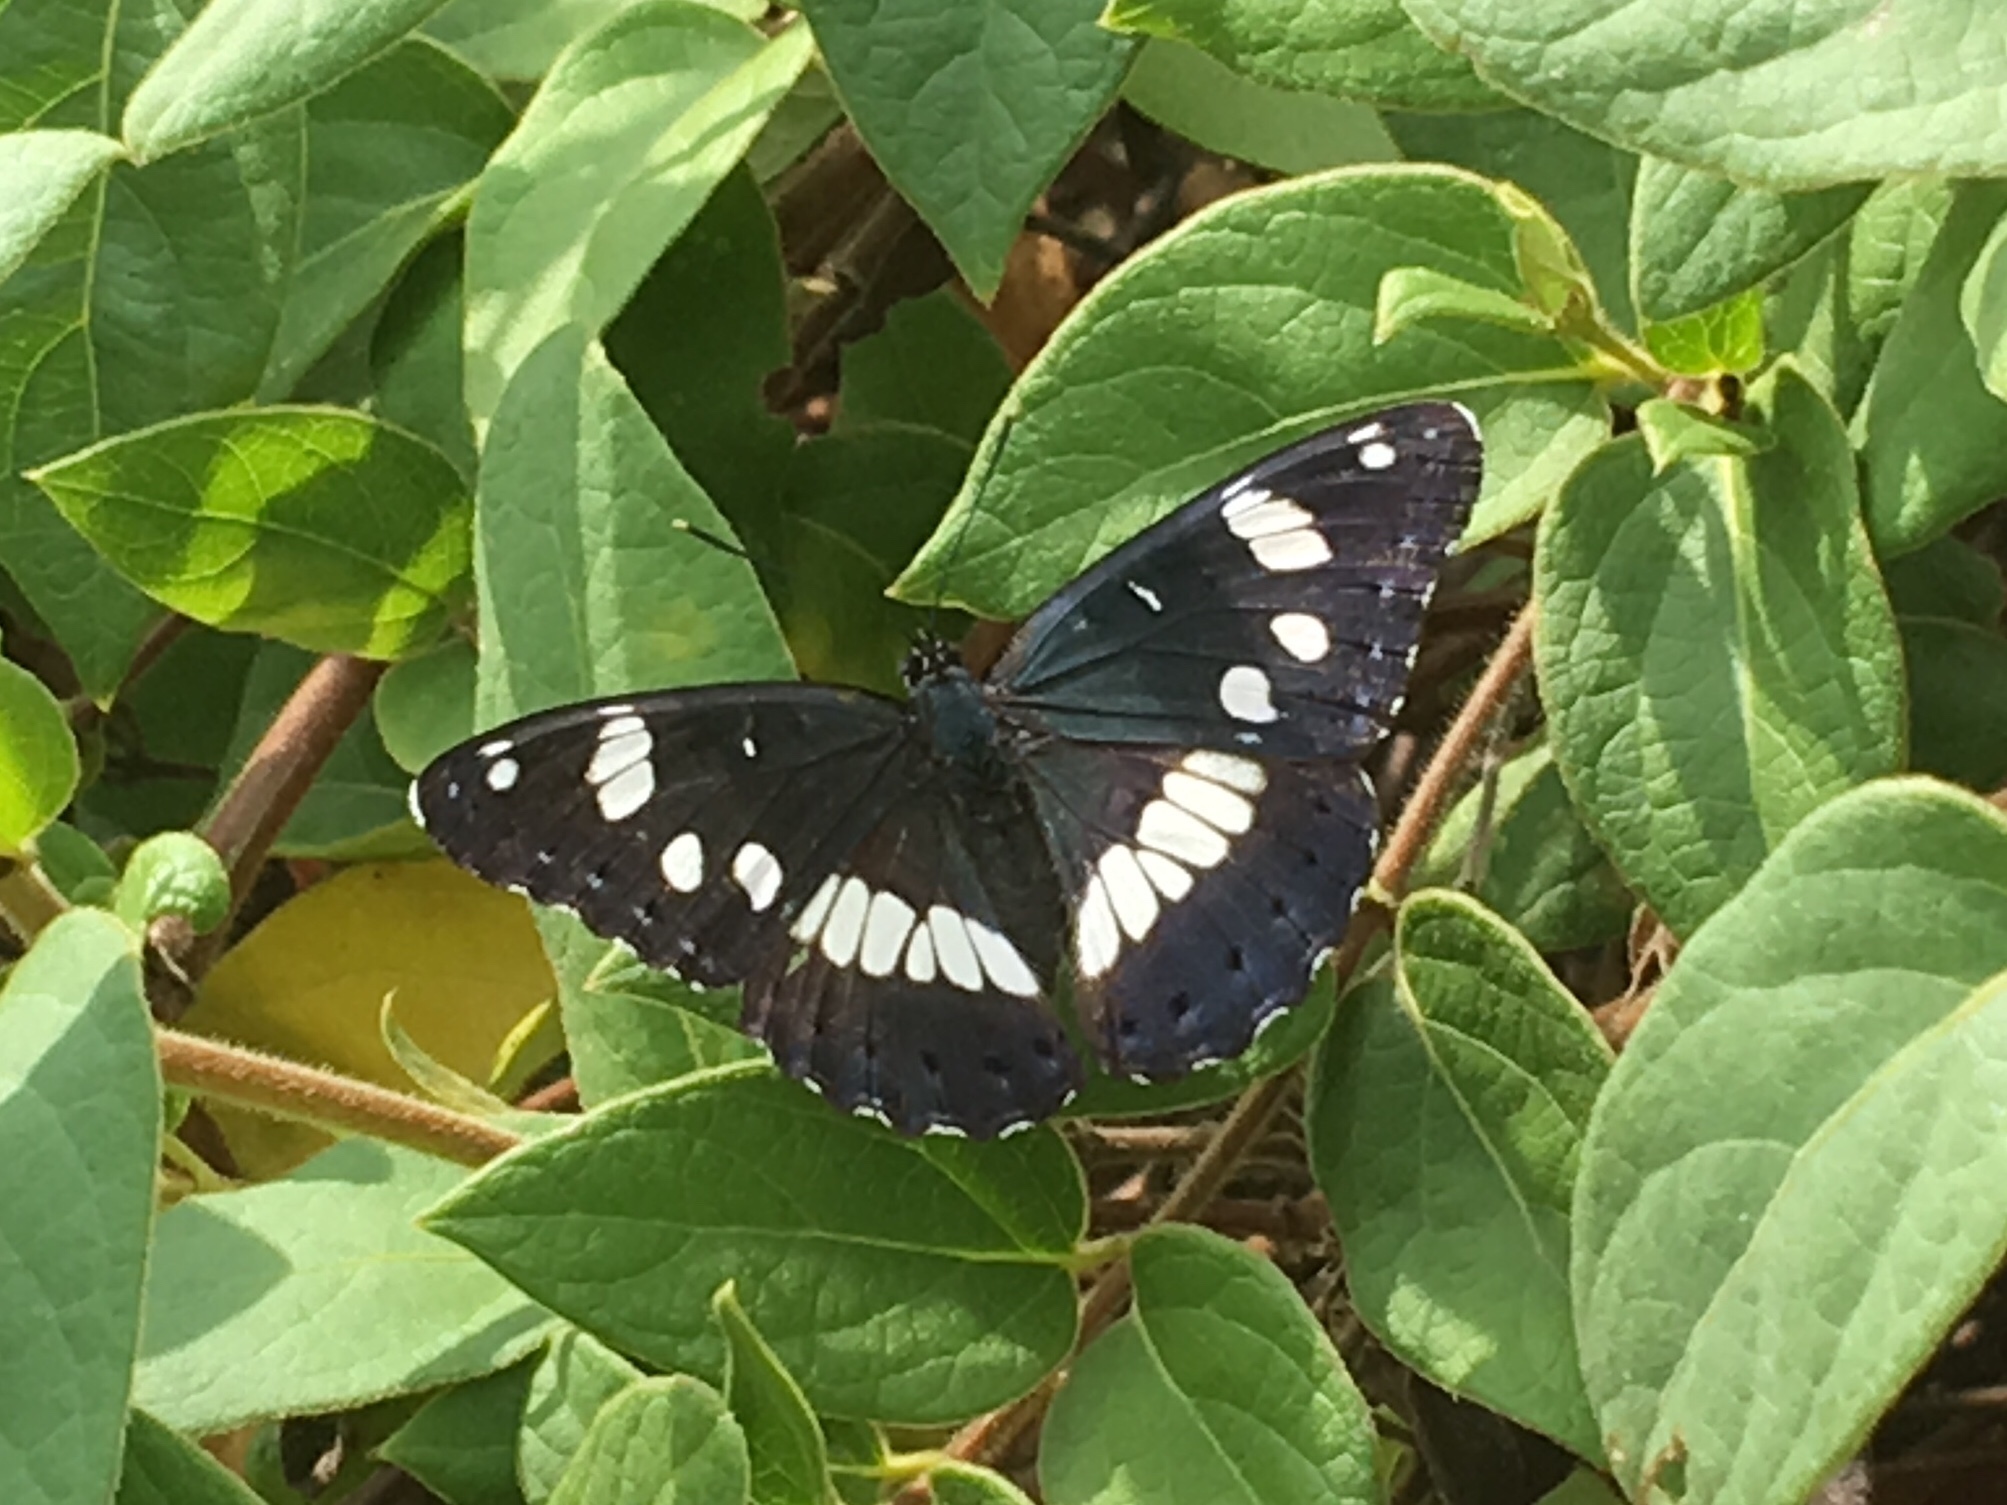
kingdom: Animalia
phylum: Arthropoda
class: Insecta
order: Lepidoptera
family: Nymphalidae
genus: Limenitis
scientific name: Limenitis reducta
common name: Southern white admiral
